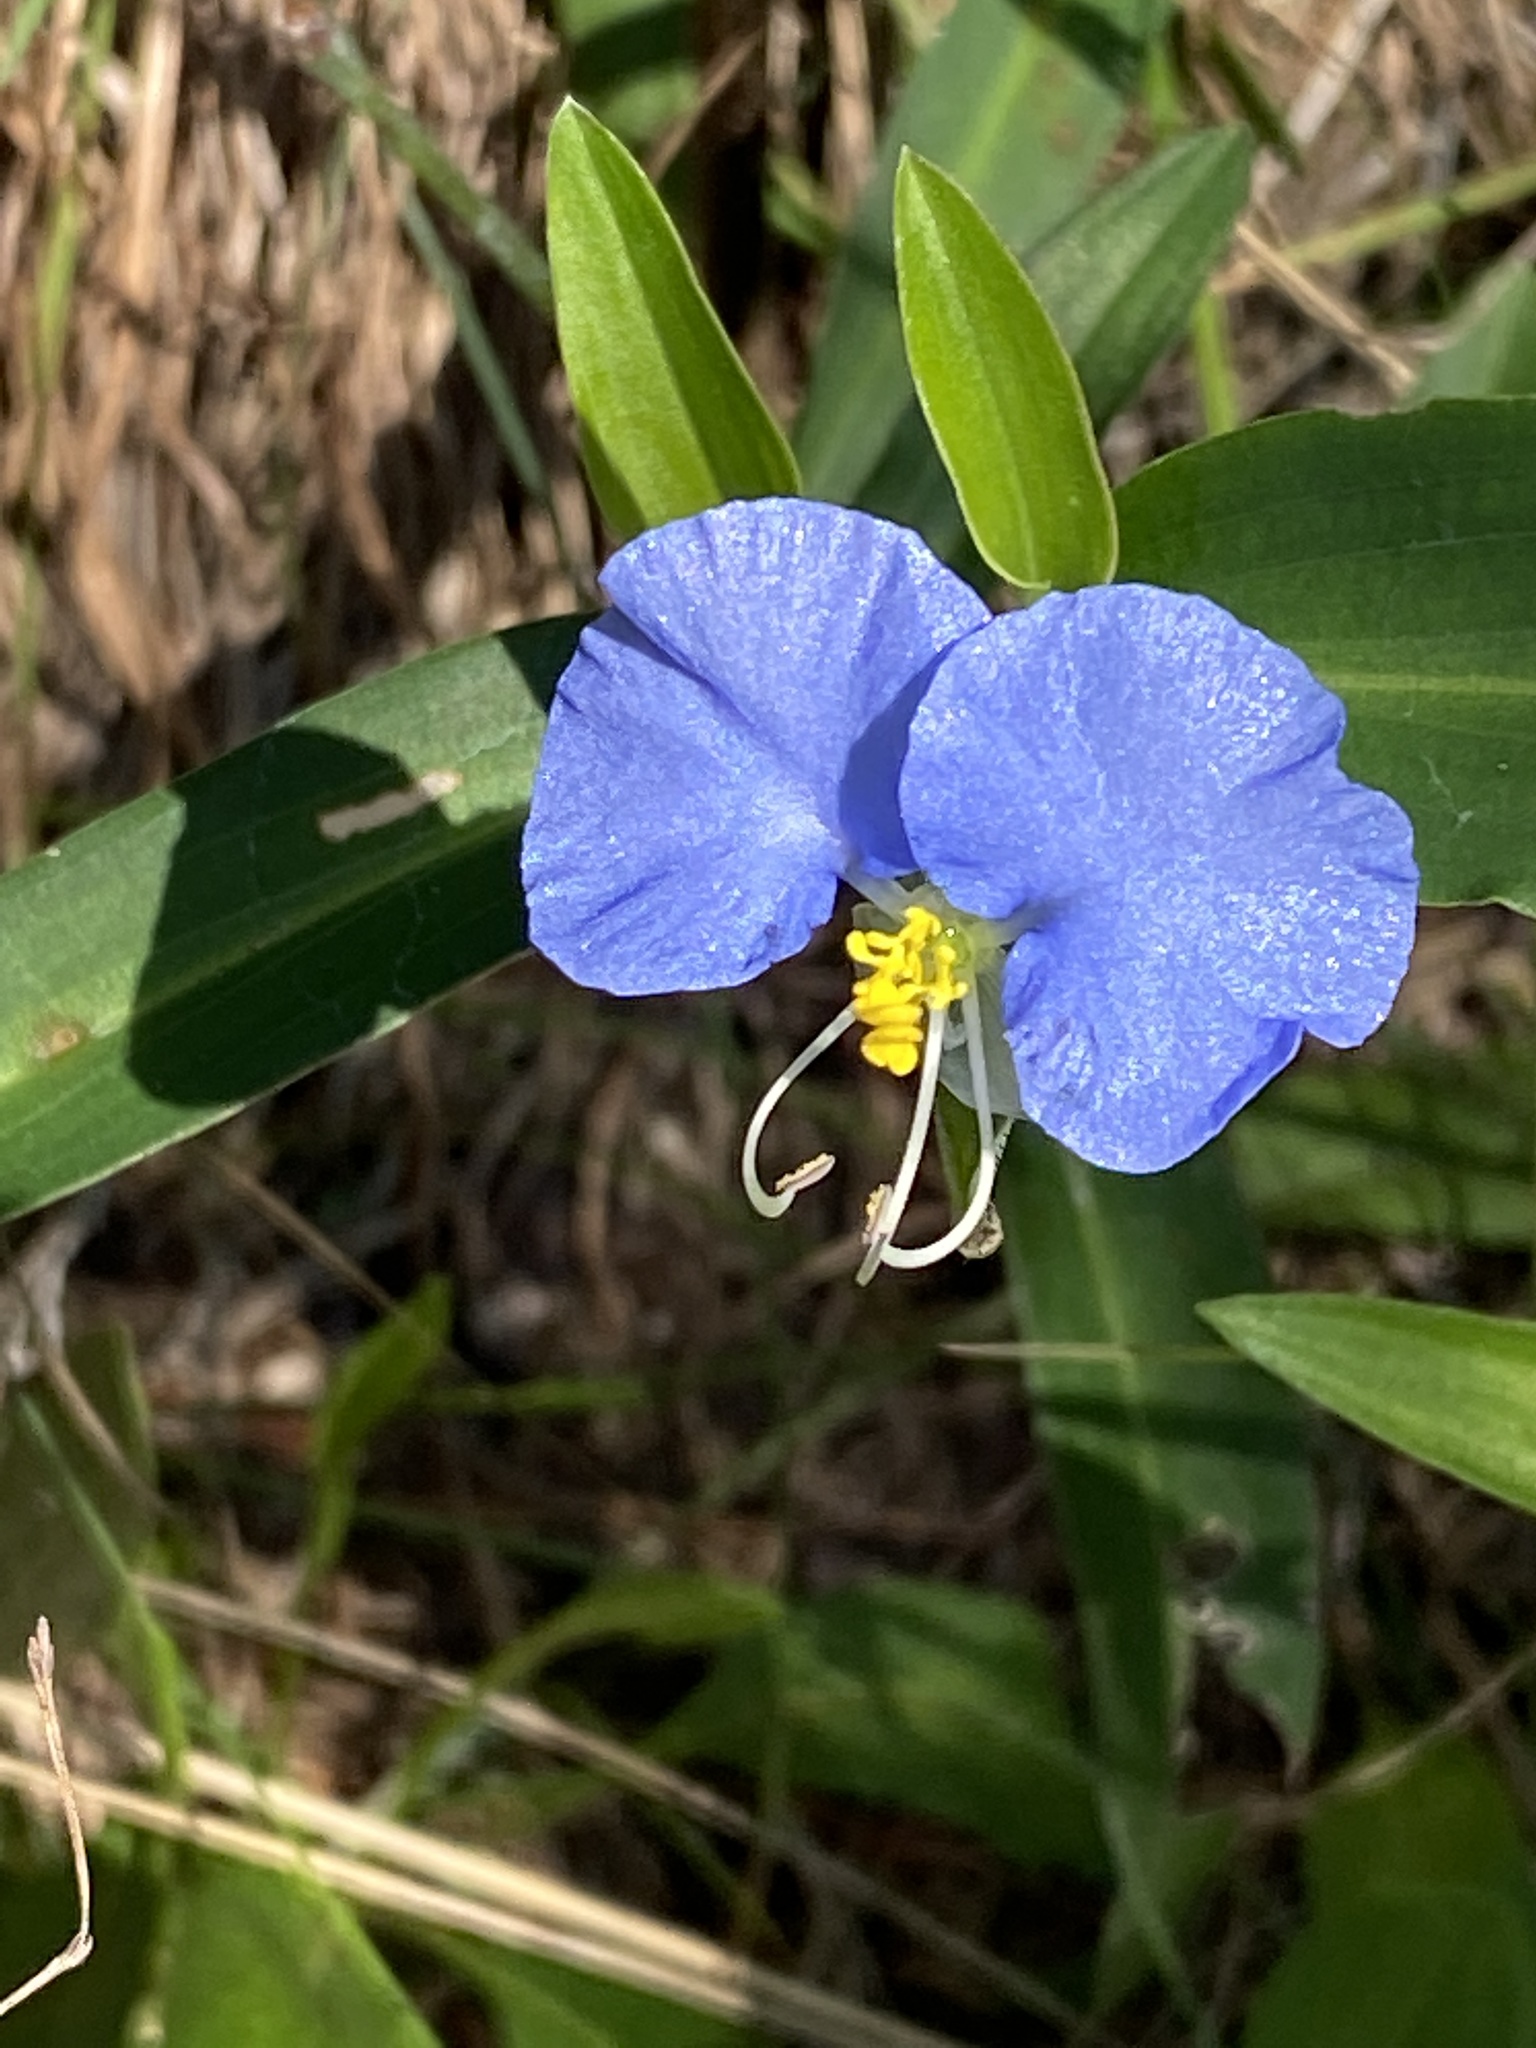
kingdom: Plantae
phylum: Tracheophyta
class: Liliopsida
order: Commelinales
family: Commelinaceae
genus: Commelina
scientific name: Commelina erecta
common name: Blousel blommetjie
